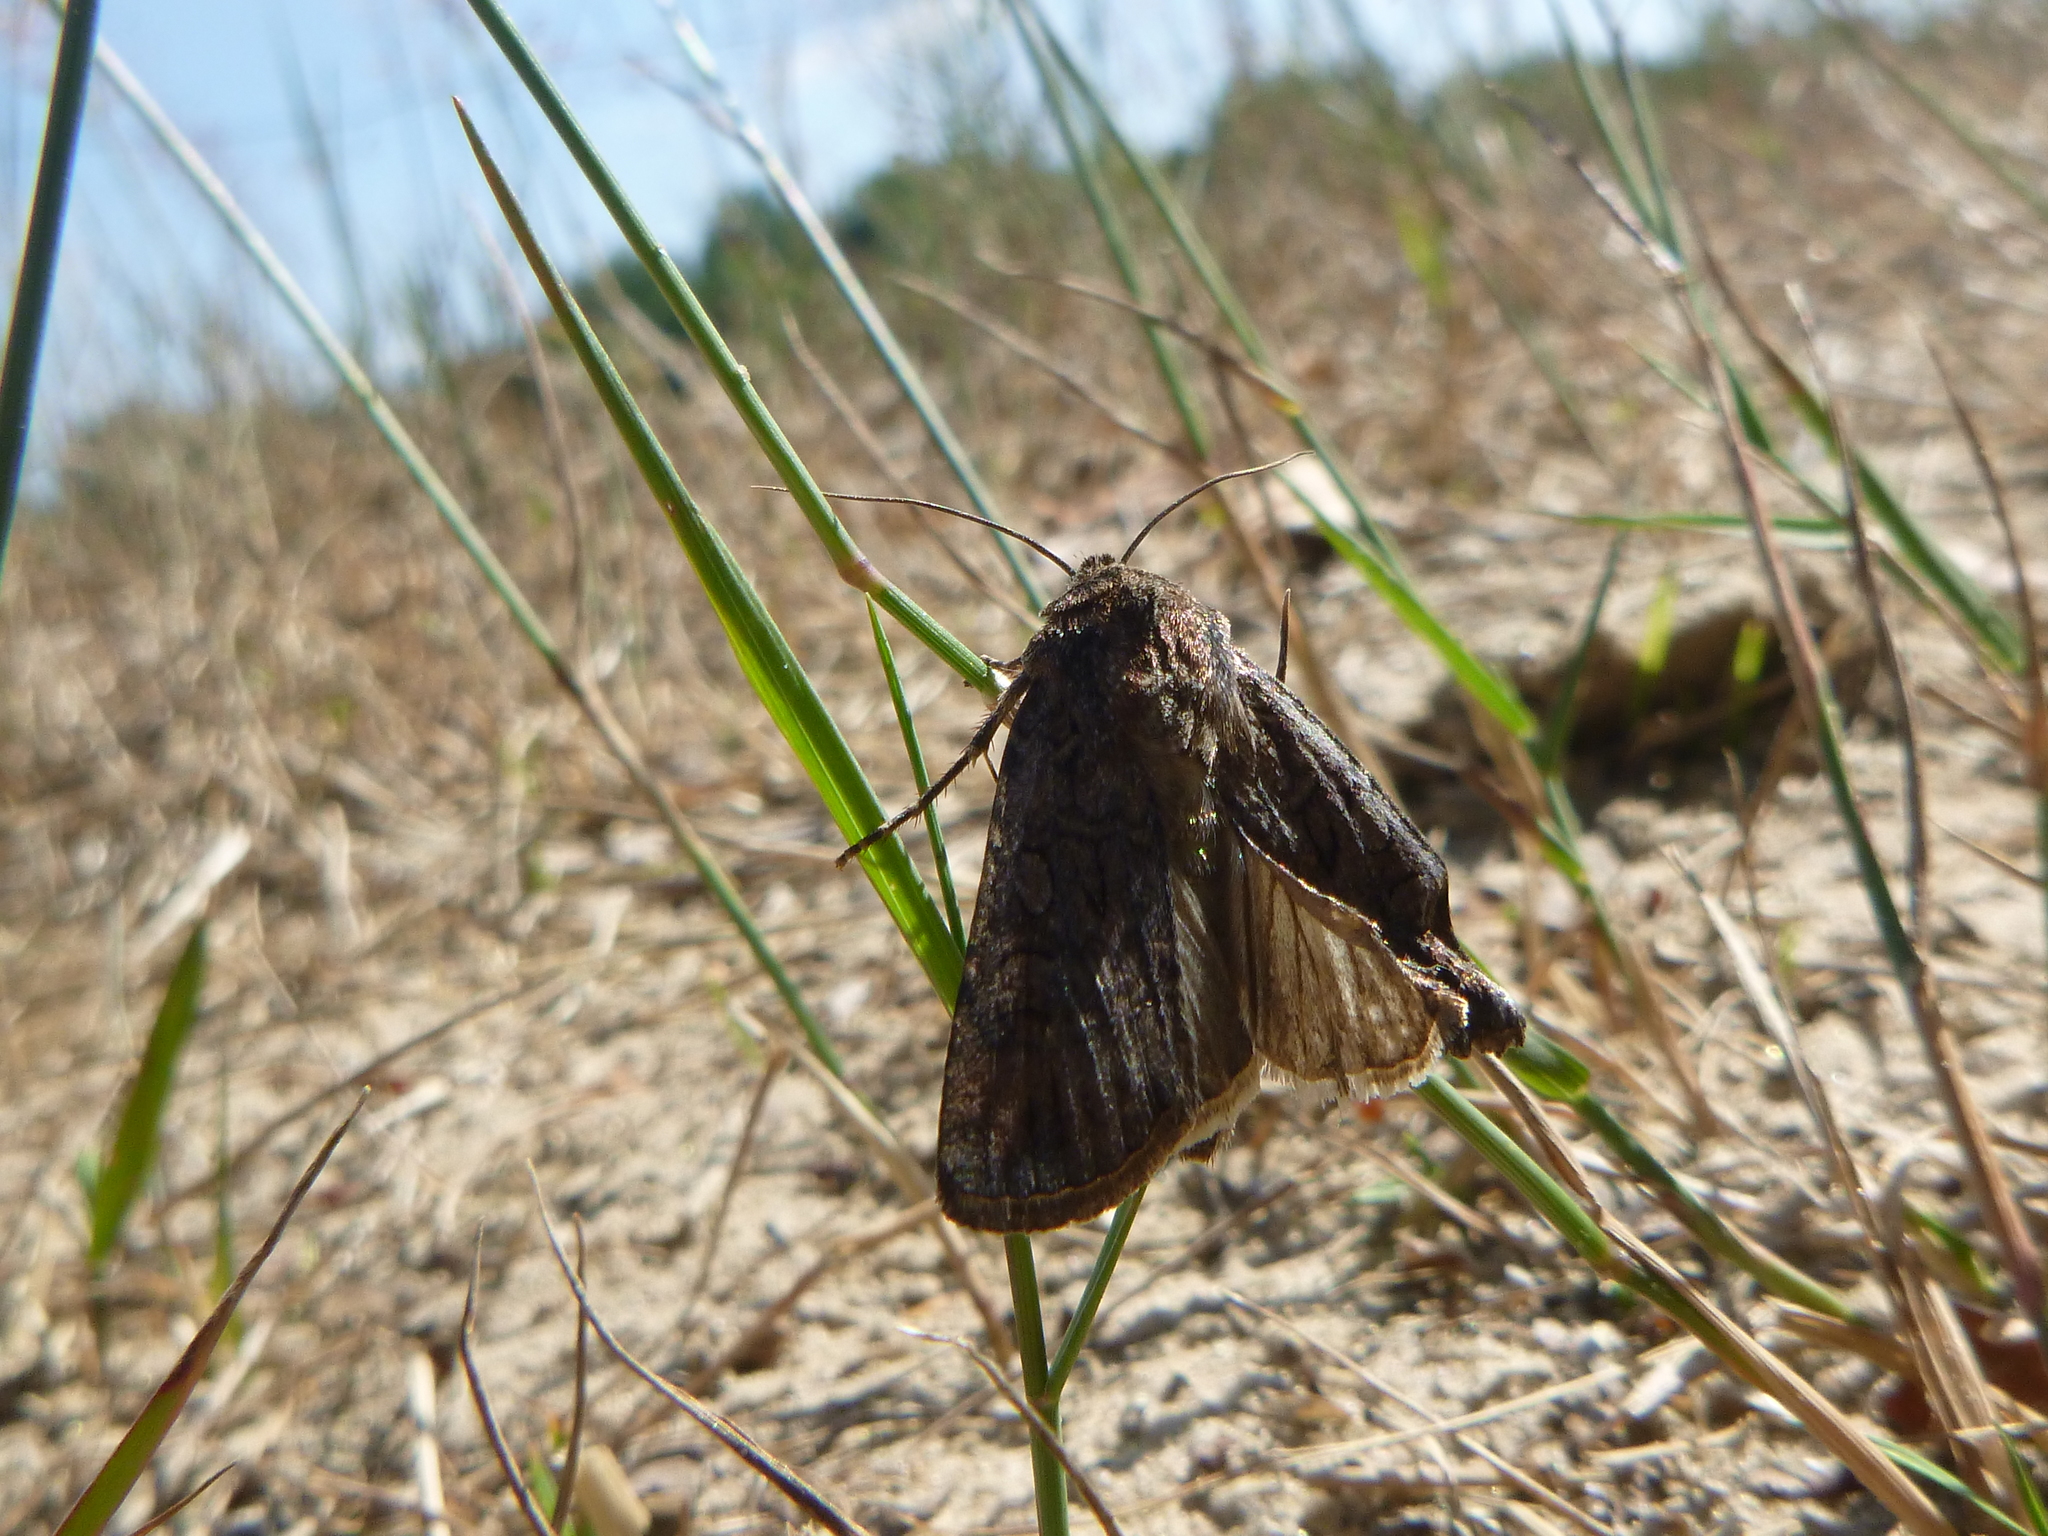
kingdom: Animalia
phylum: Arthropoda
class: Insecta
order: Lepidoptera
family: Noctuidae
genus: Oligia
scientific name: Oligia
